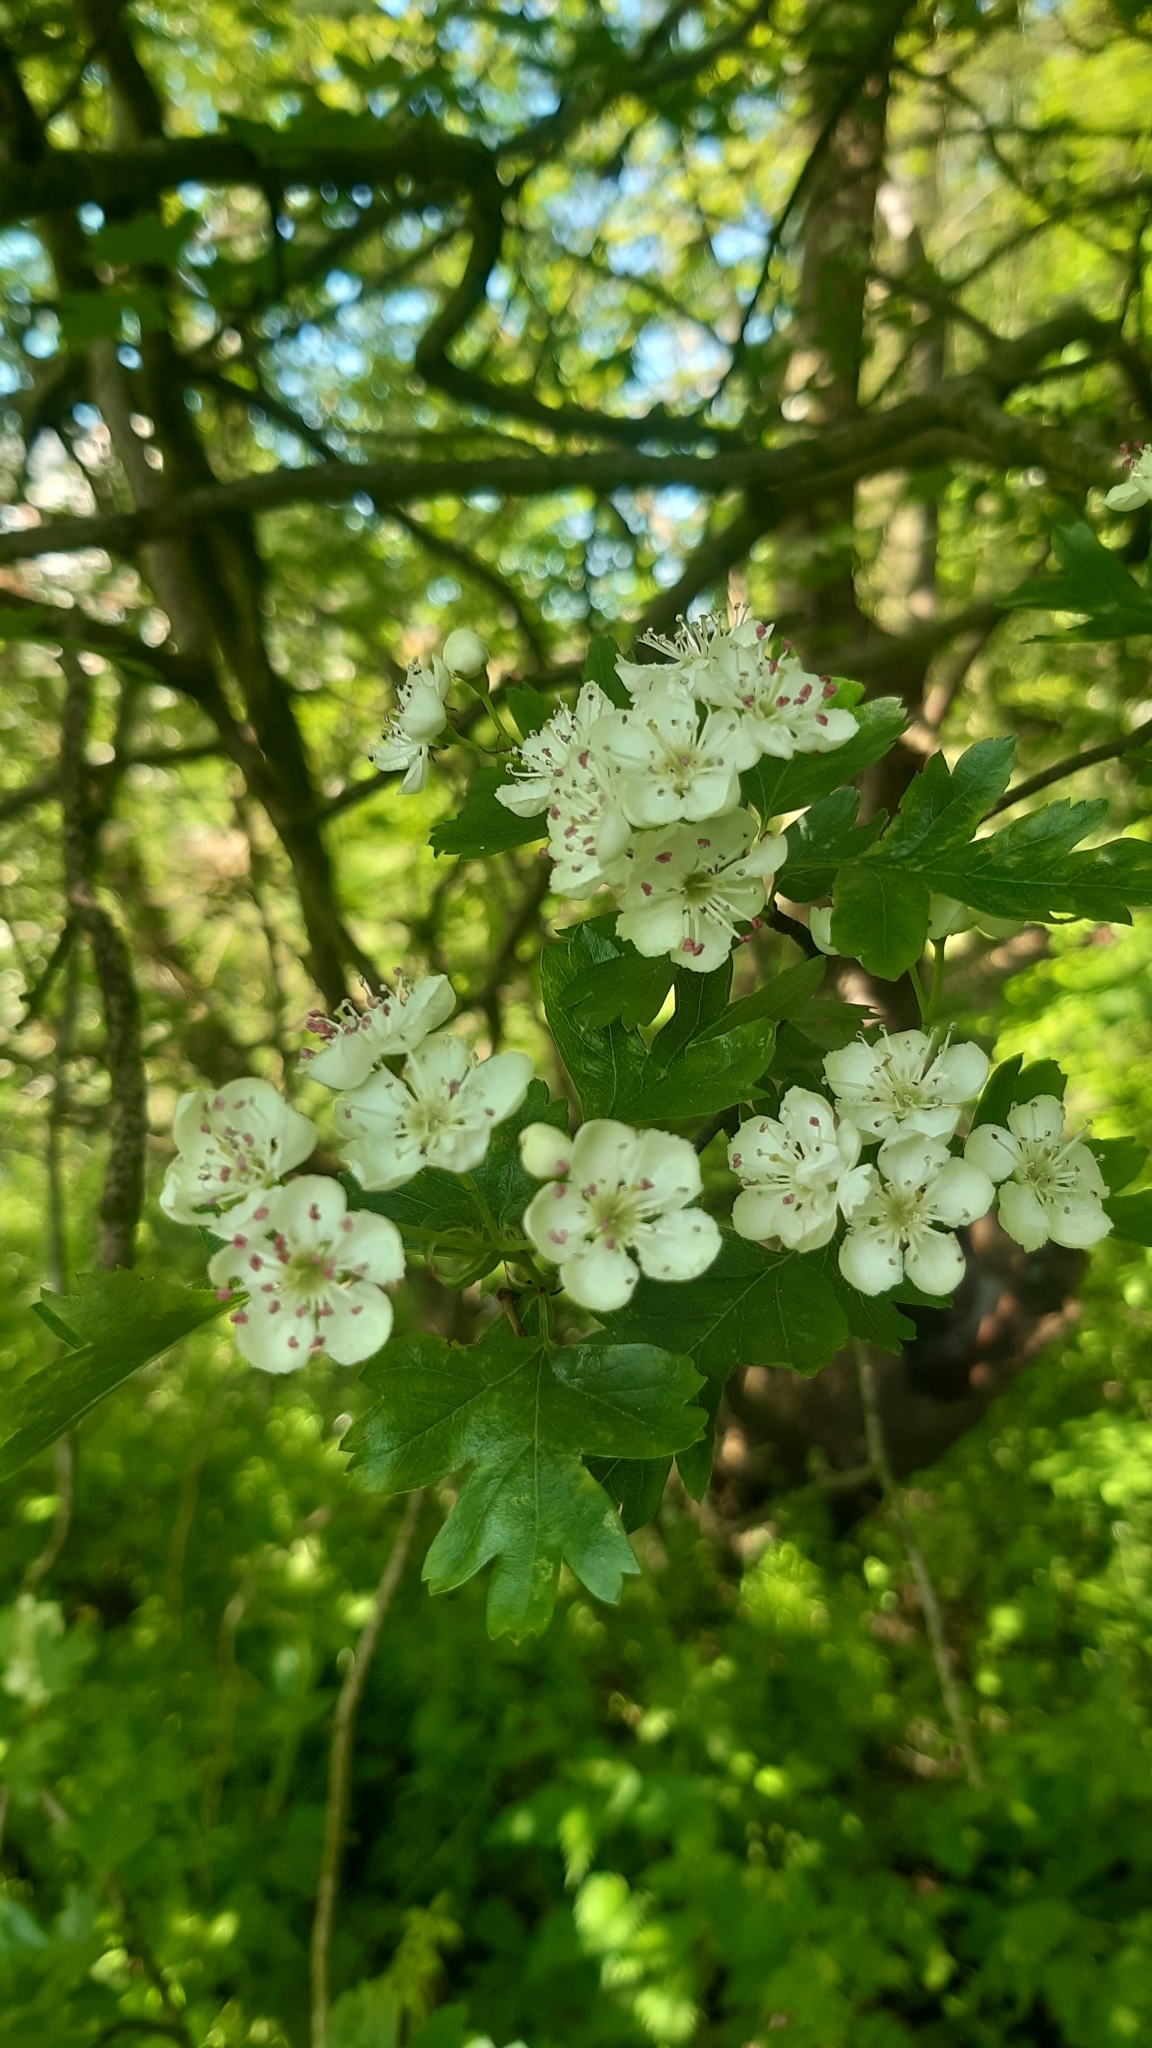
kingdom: Plantae
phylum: Tracheophyta
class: Magnoliopsida
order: Rosales
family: Rosaceae
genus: Crataegus
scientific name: Crataegus monogyna
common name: Hawthorn
